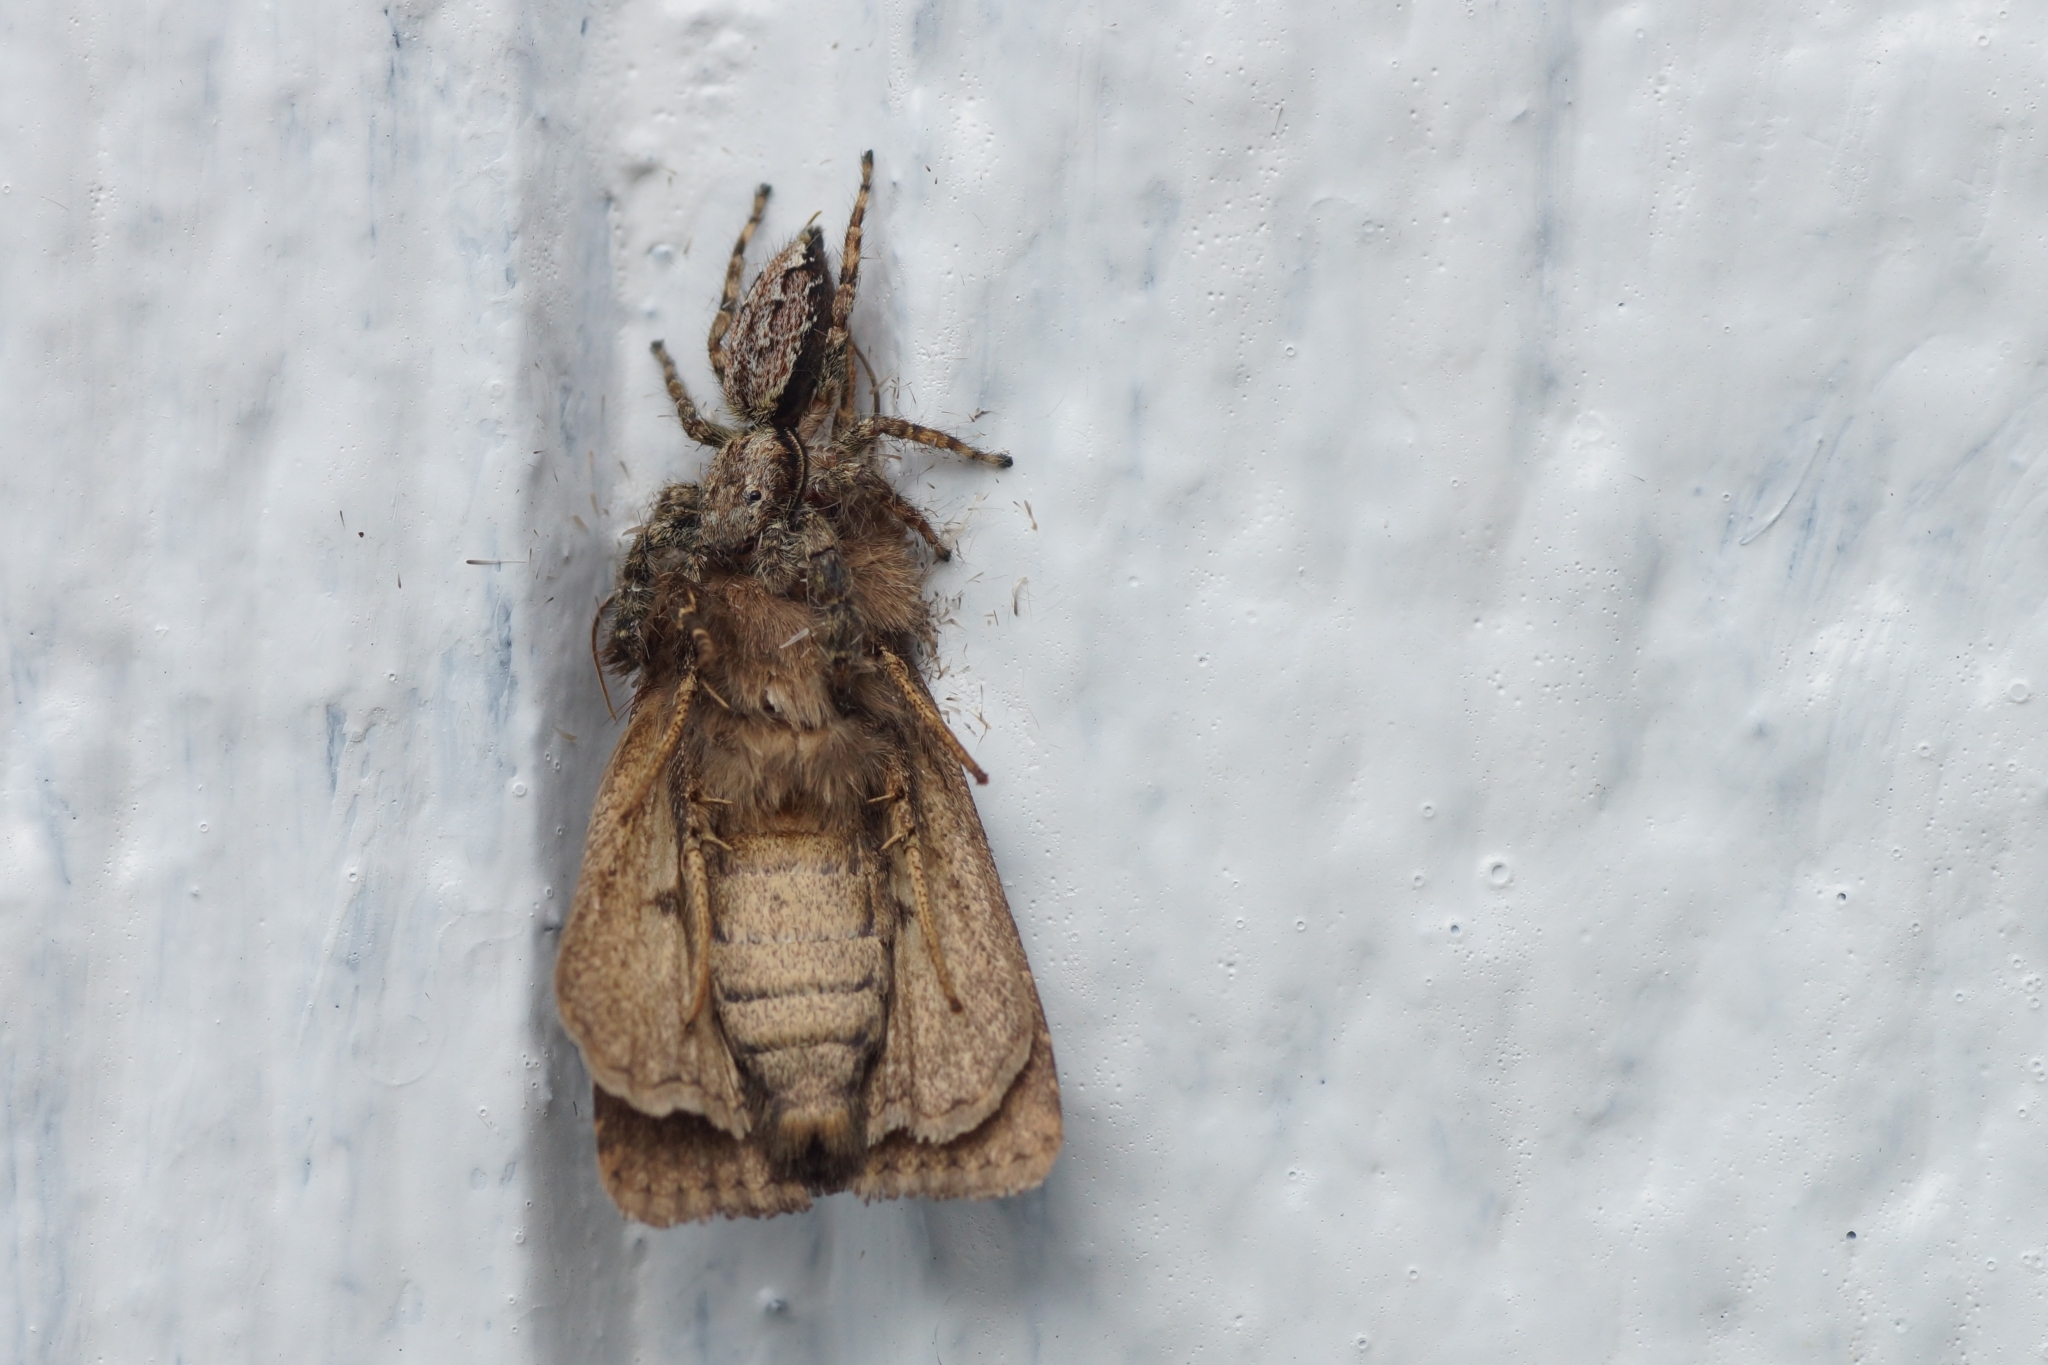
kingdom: Animalia
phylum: Arthropoda
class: Arachnida
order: Araneae
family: Salticidae
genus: Marpissa
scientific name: Marpissa muscosa
